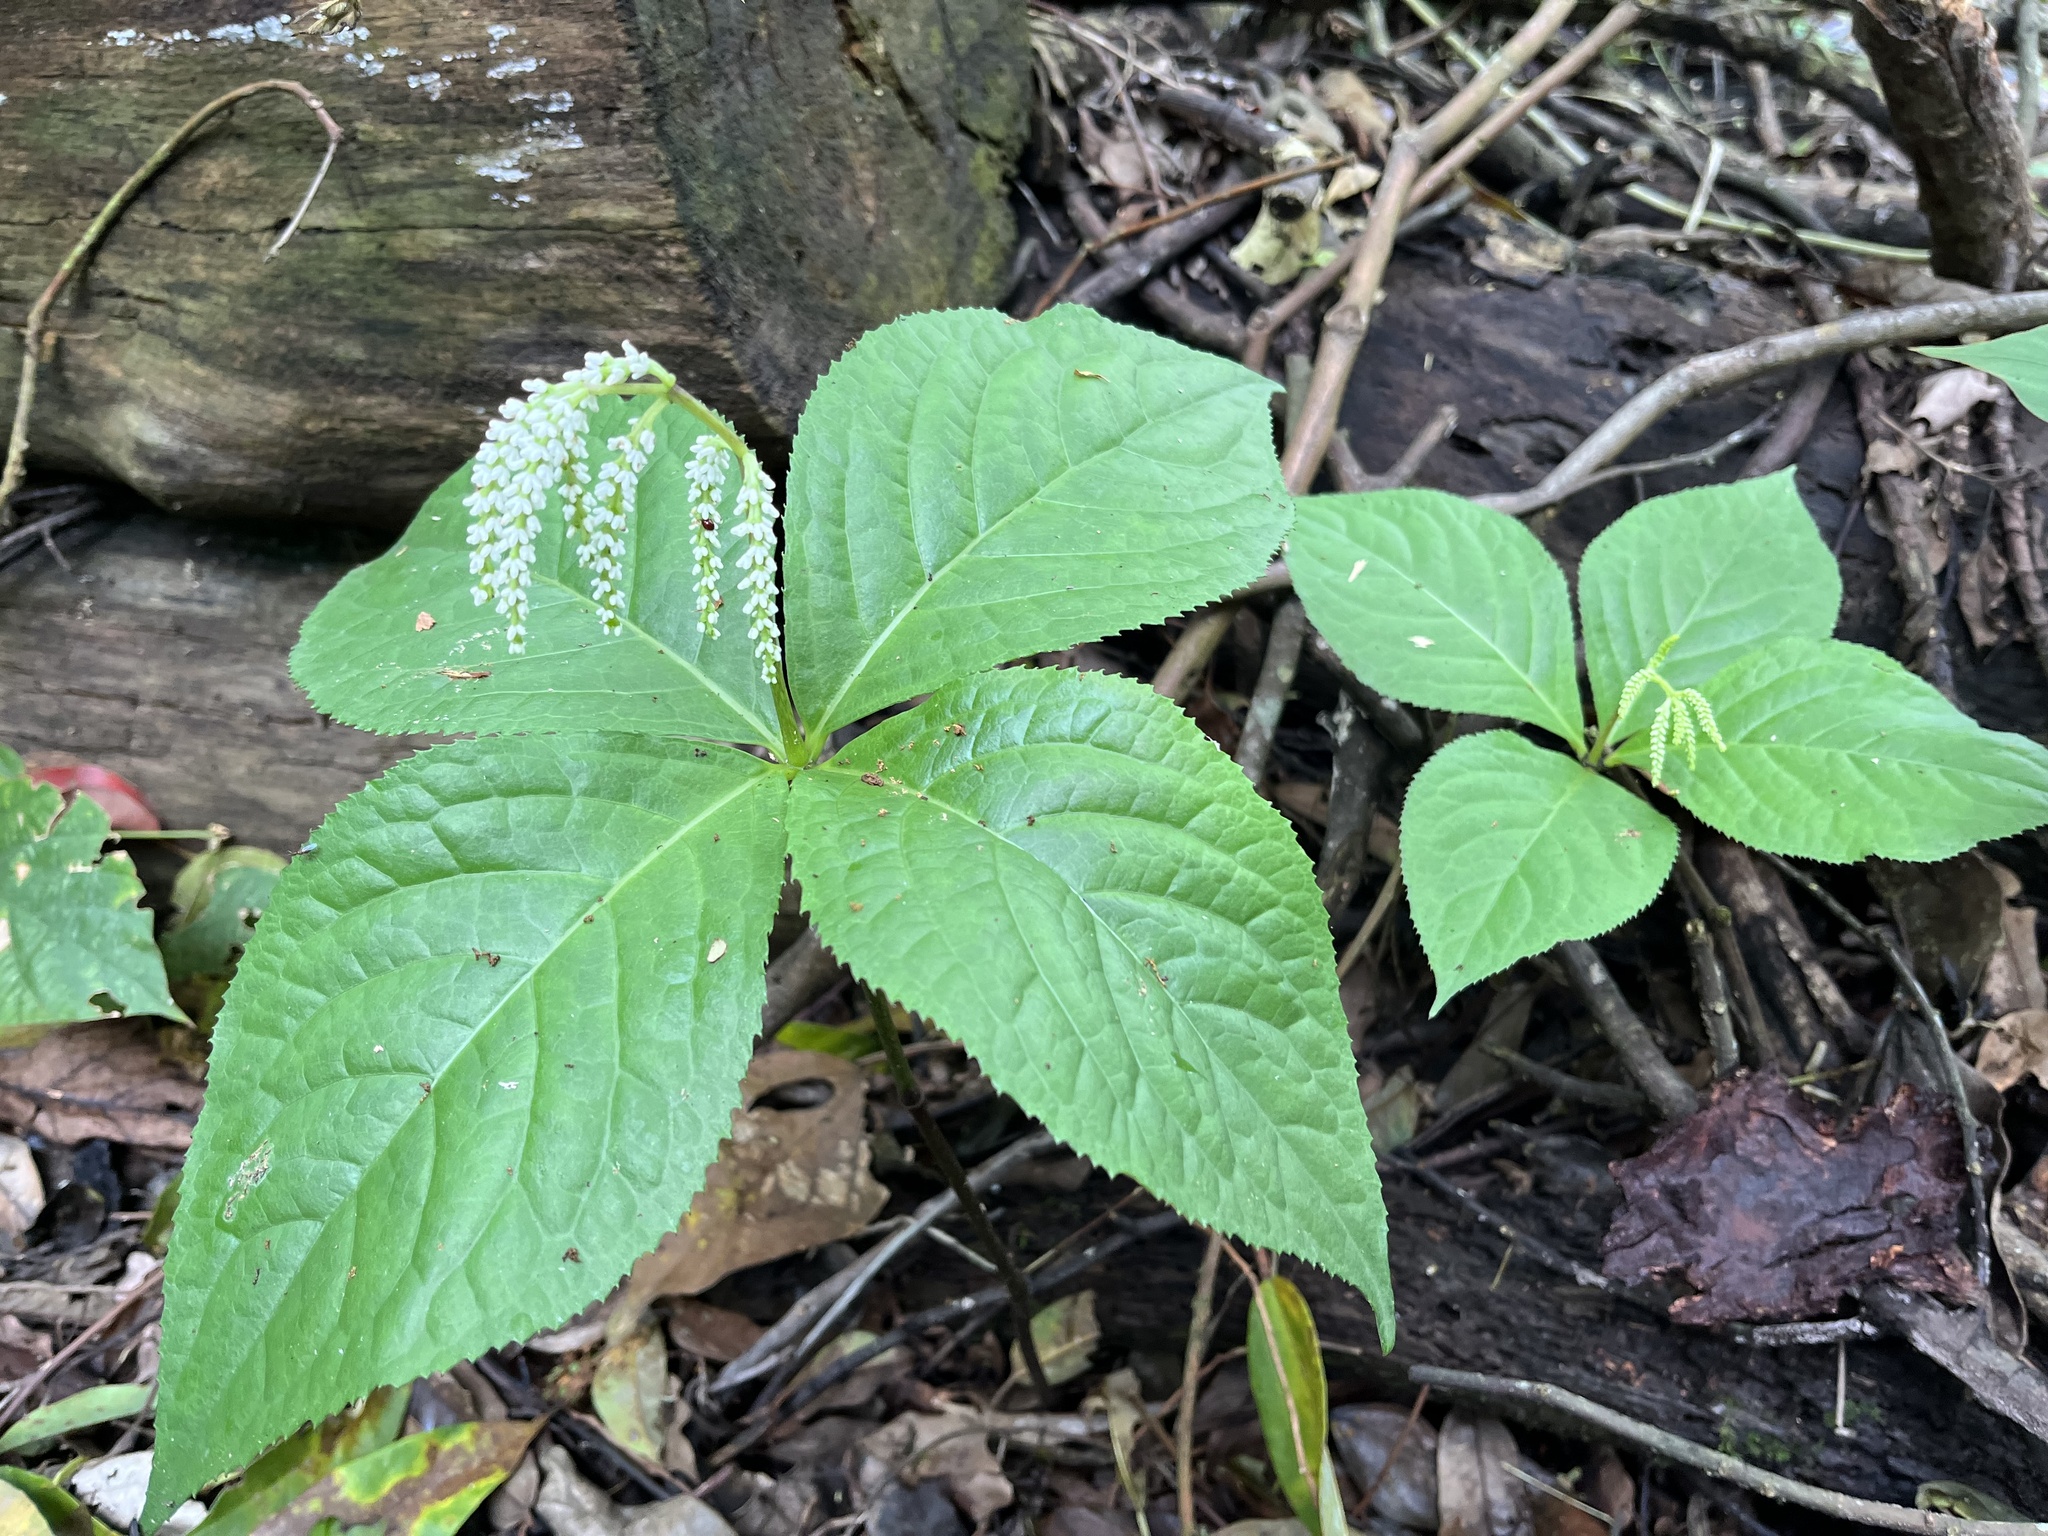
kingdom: Plantae
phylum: Tracheophyta
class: Magnoliopsida
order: Chloranthales
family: Chloranthaceae
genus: Chloranthus
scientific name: Chloranthus oldhamii
